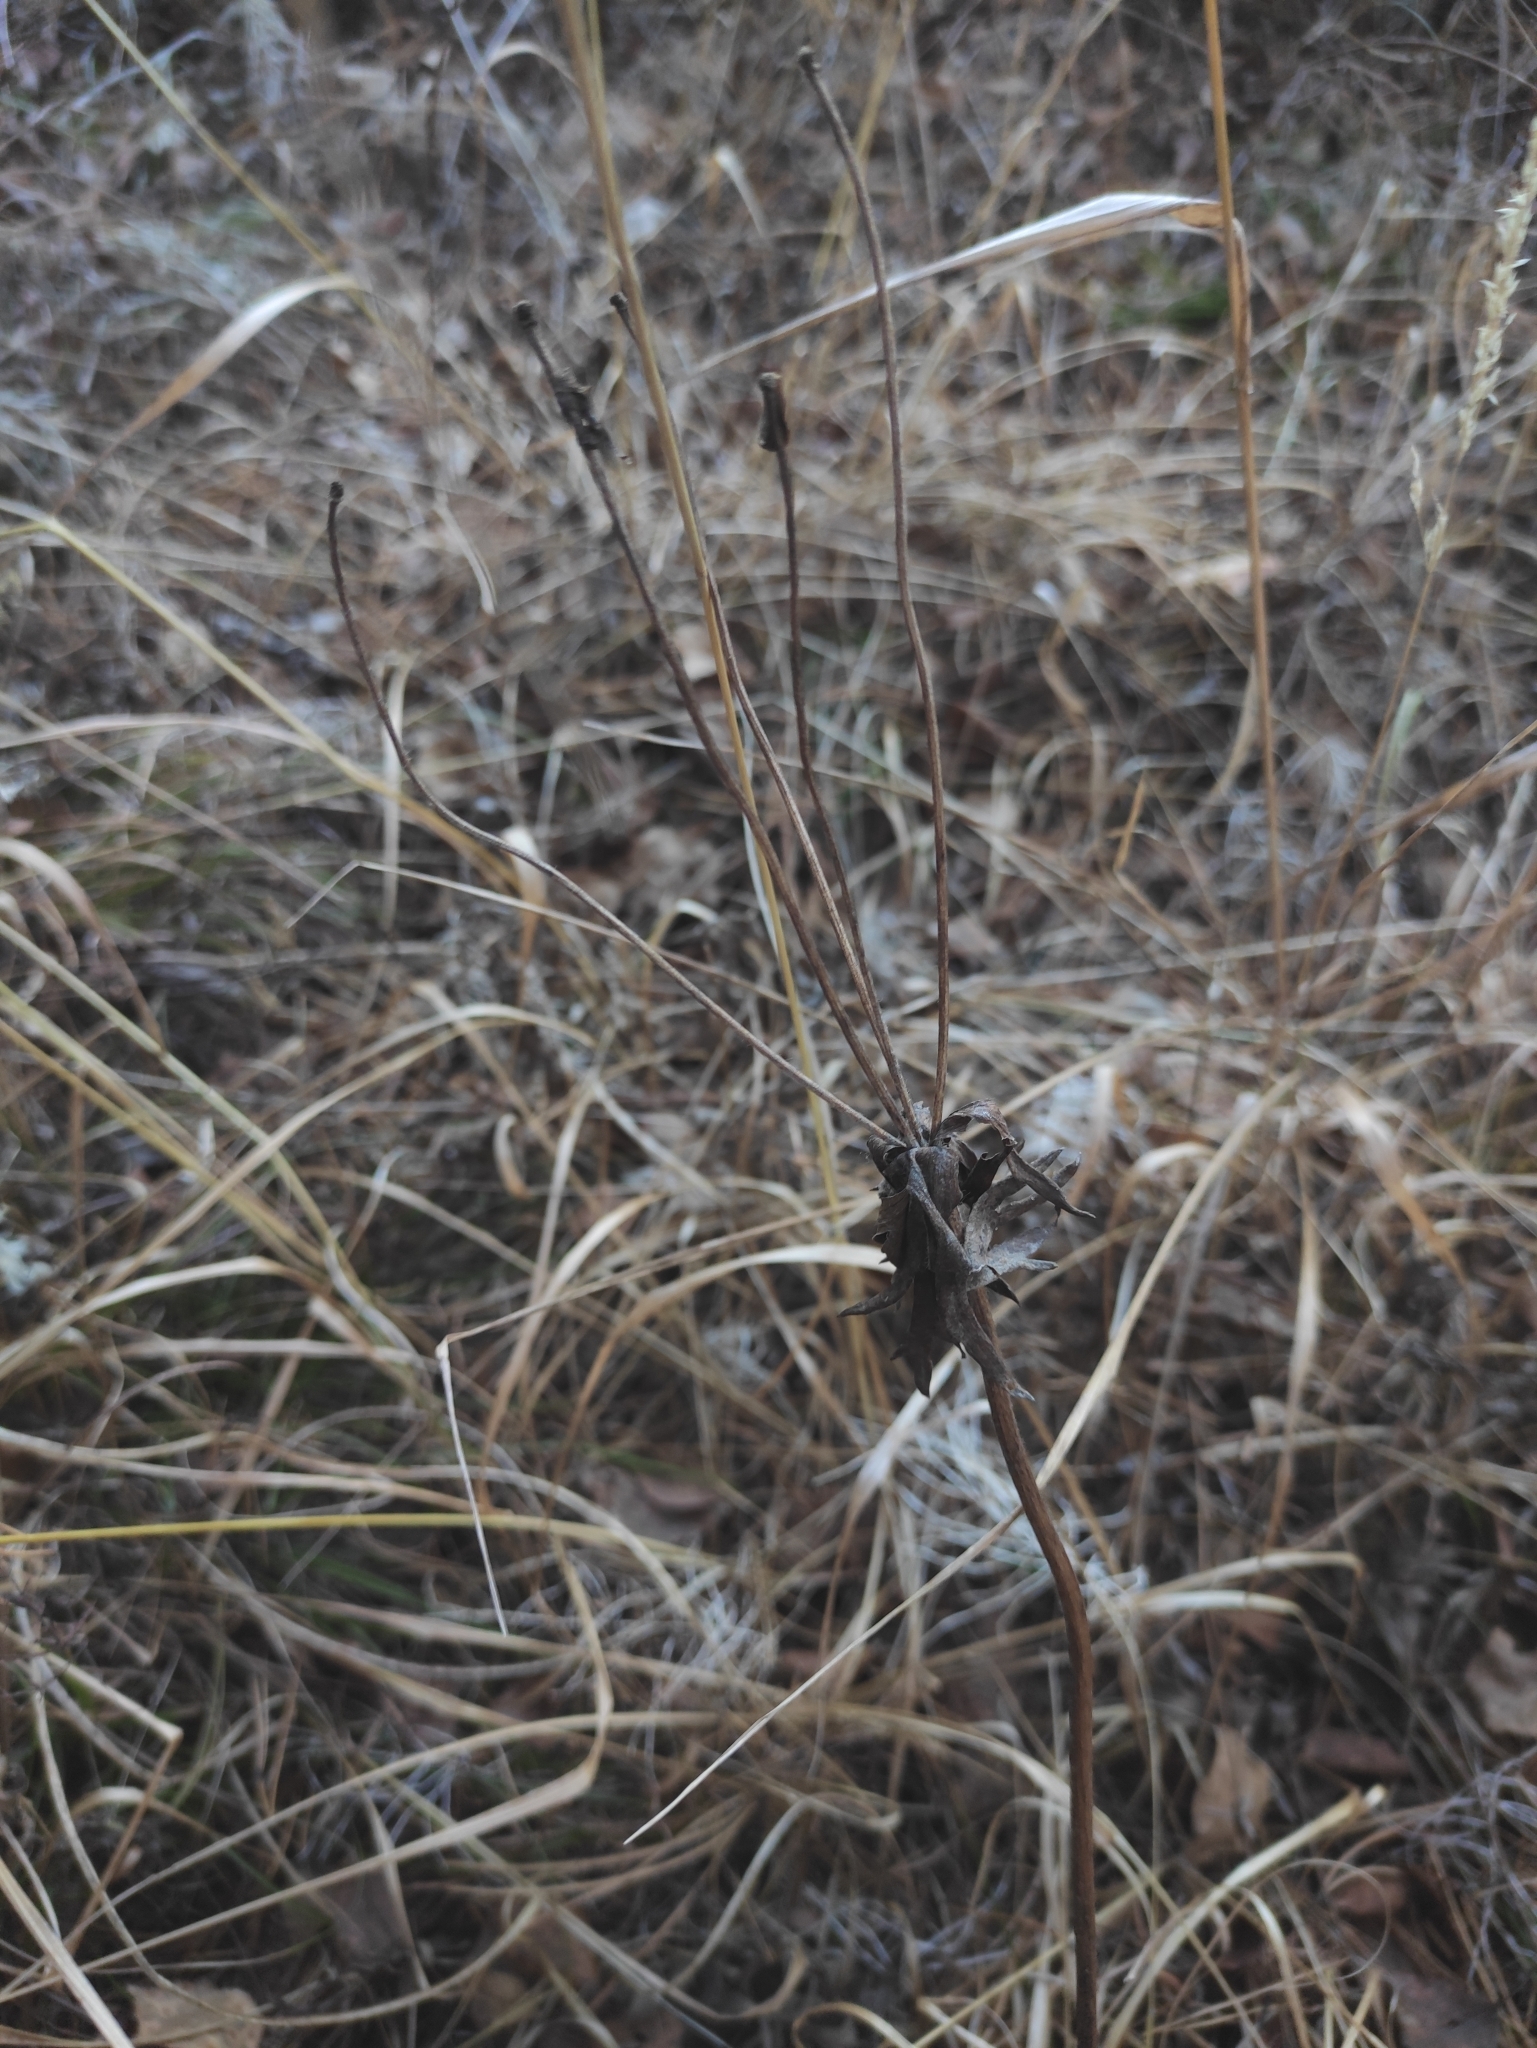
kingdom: Plantae
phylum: Tracheophyta
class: Magnoliopsida
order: Ranunculales
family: Ranunculaceae
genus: Anemonastrum
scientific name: Anemonastrum narcissiflorum
